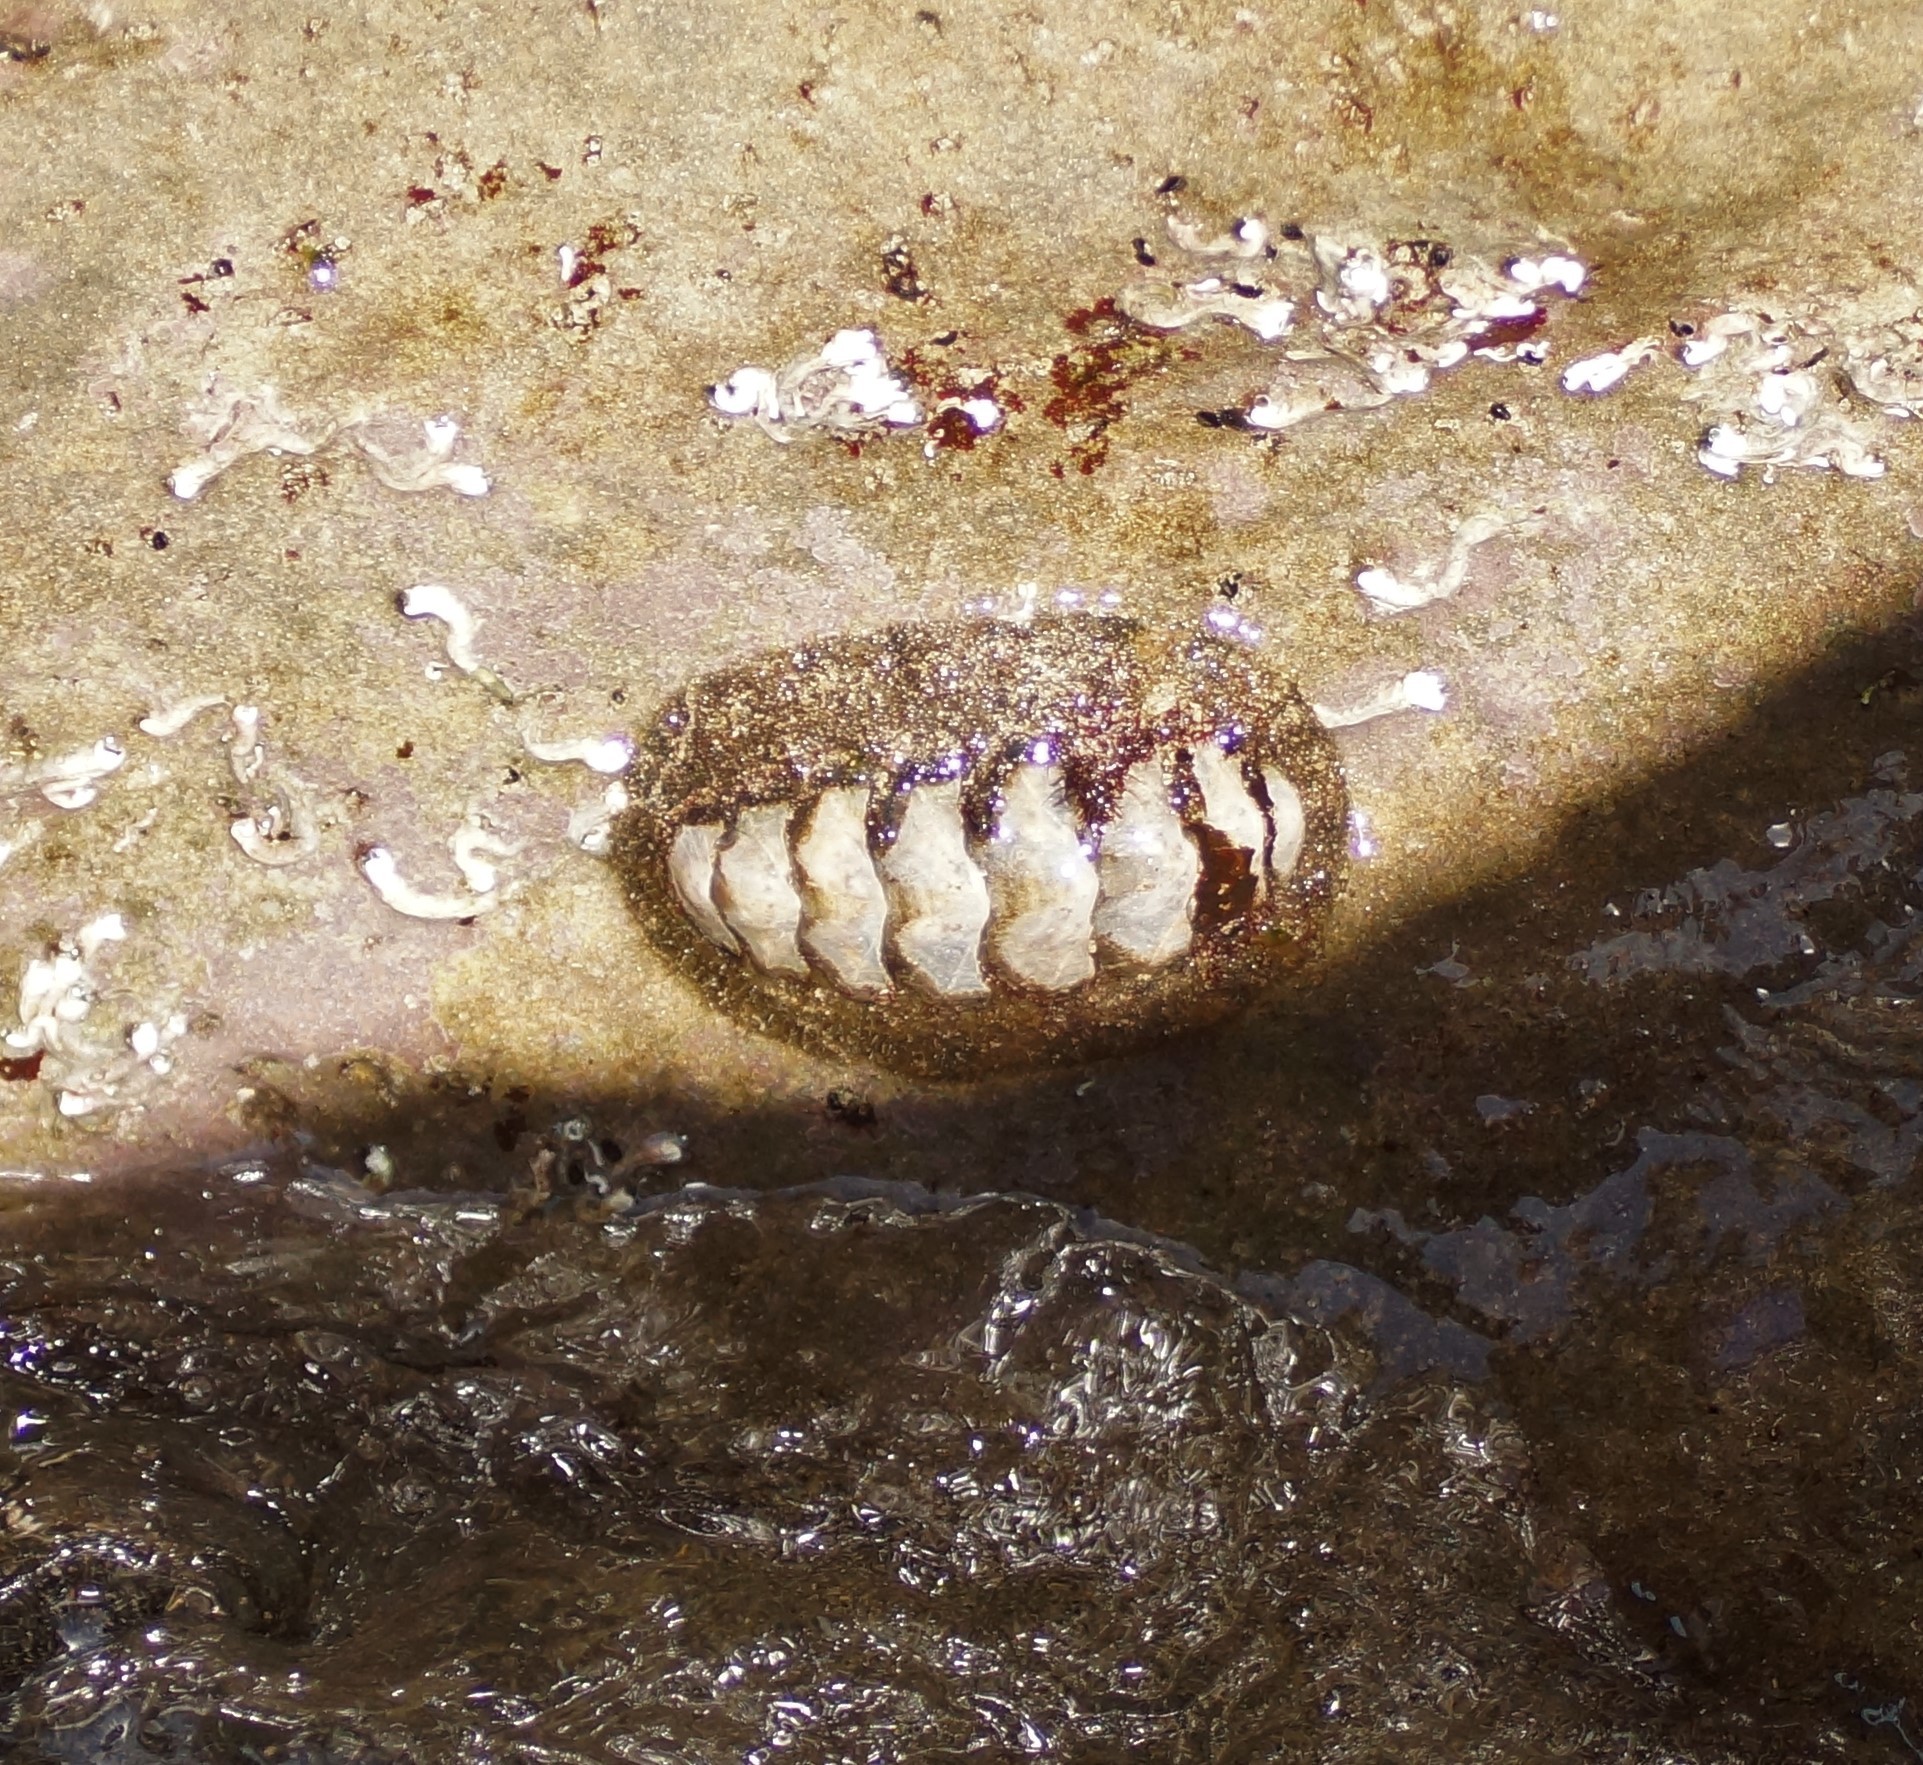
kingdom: Animalia
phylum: Mollusca
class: Polyplacophora
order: Chitonida
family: Mopaliidae
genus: Plaxiphora
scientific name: Plaxiphora albida
